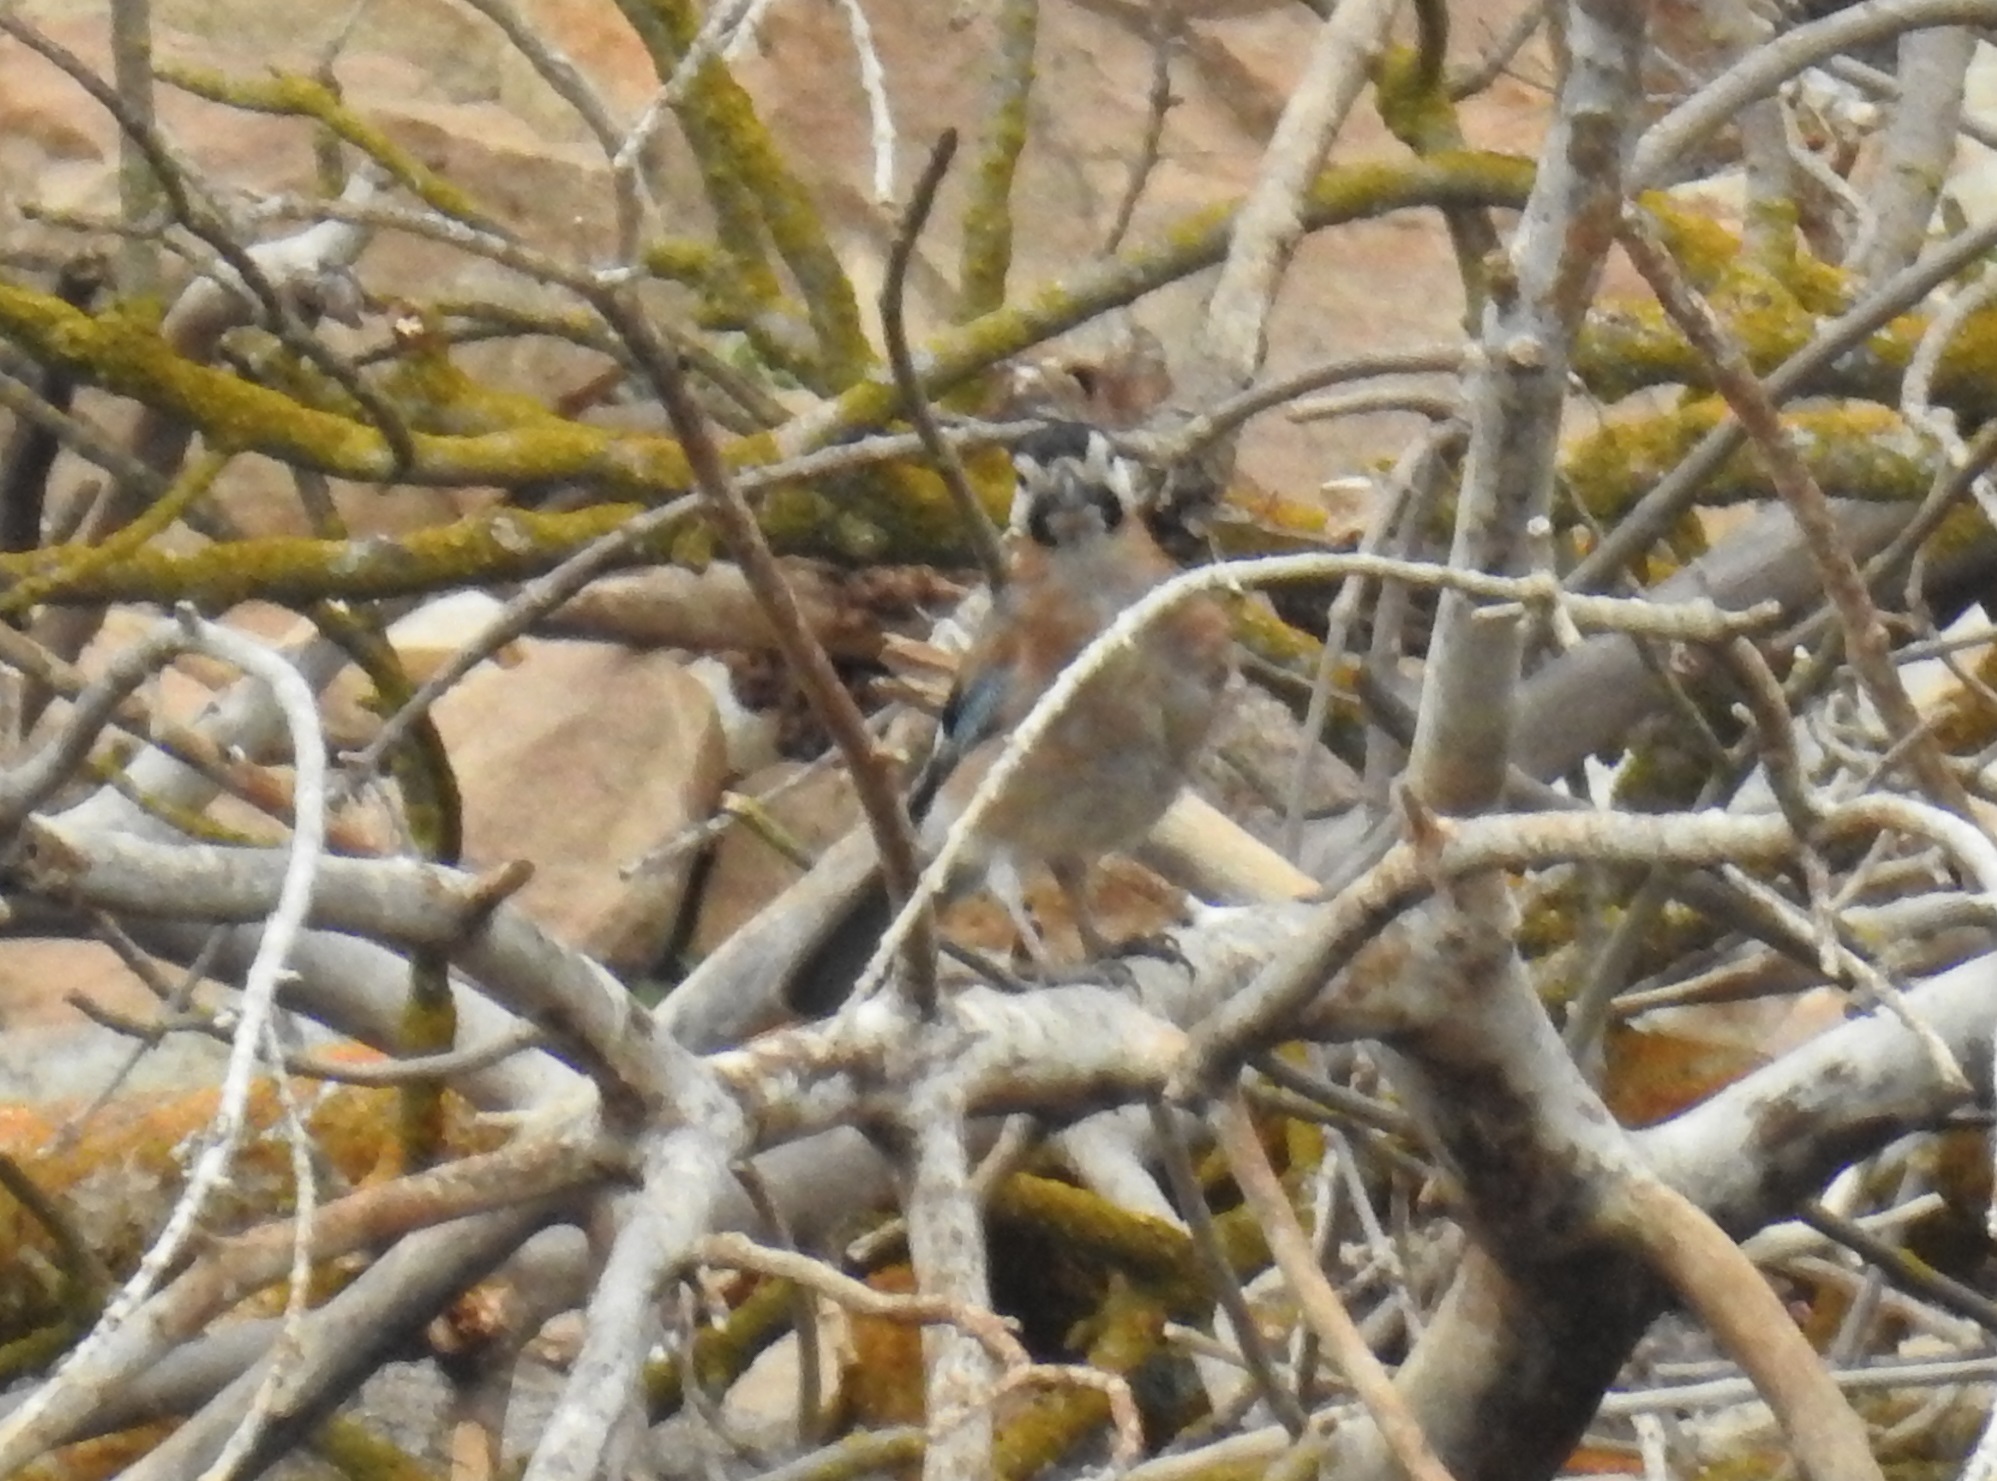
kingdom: Animalia
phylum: Chordata
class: Aves
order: Passeriformes
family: Corvidae
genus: Garrulus
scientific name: Garrulus glandarius
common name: Eurasian jay
